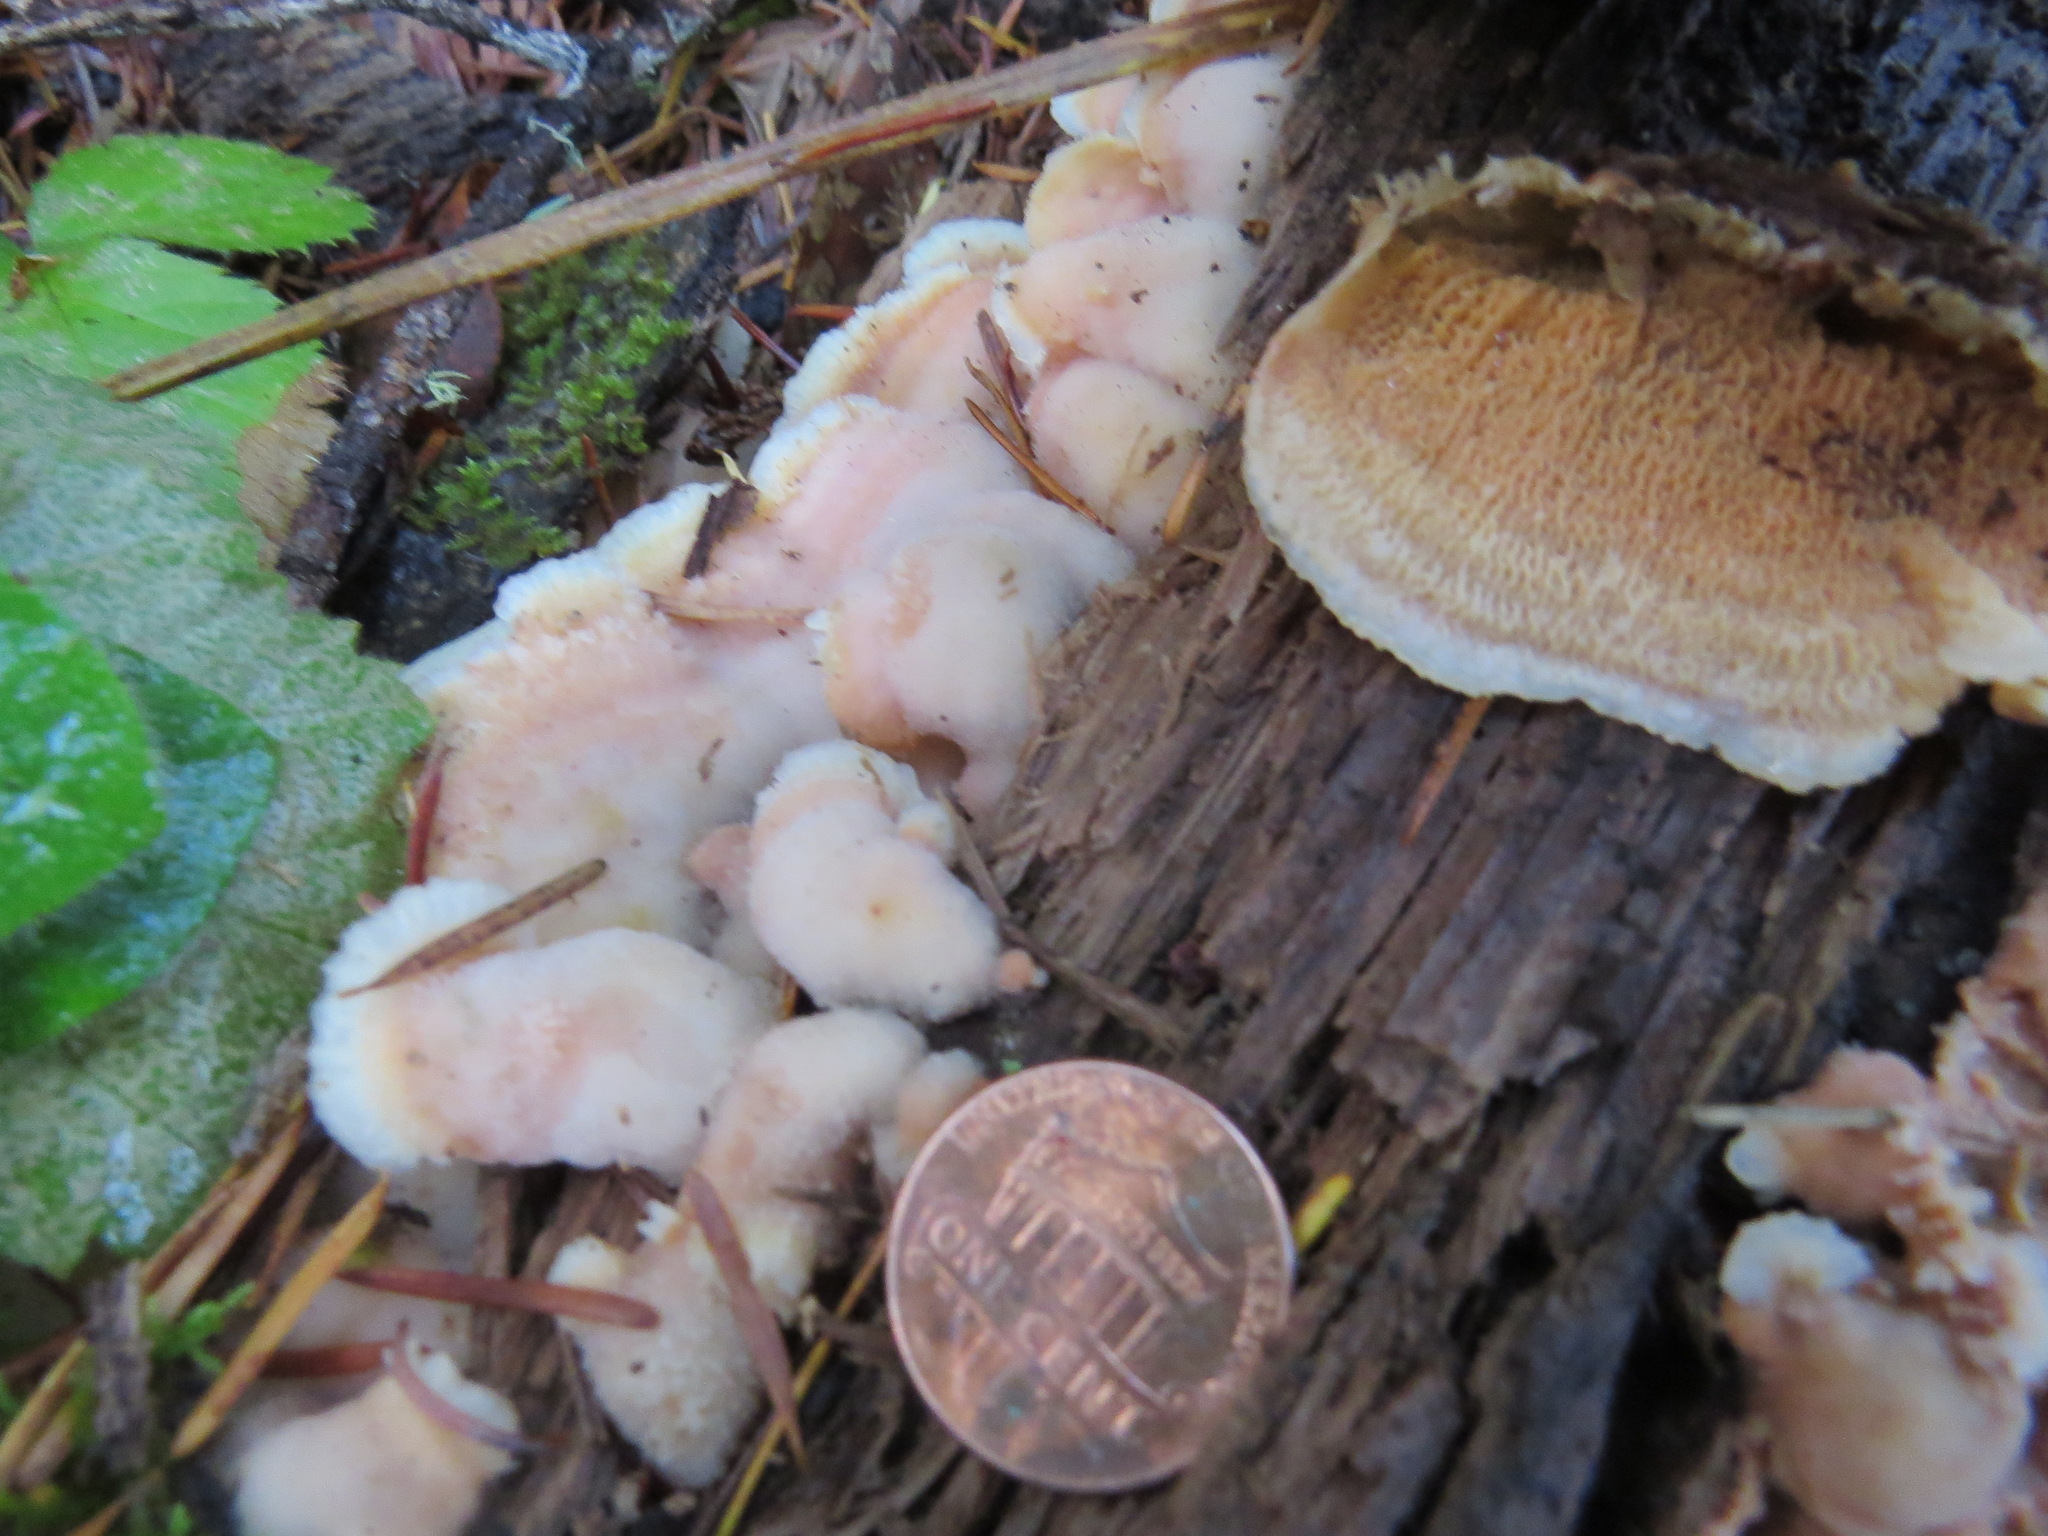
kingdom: Fungi
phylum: Basidiomycota
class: Agaricomycetes
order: Polyporales
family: Meruliaceae
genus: Phlebia
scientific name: Phlebia tremellosa
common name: Jelly rot
